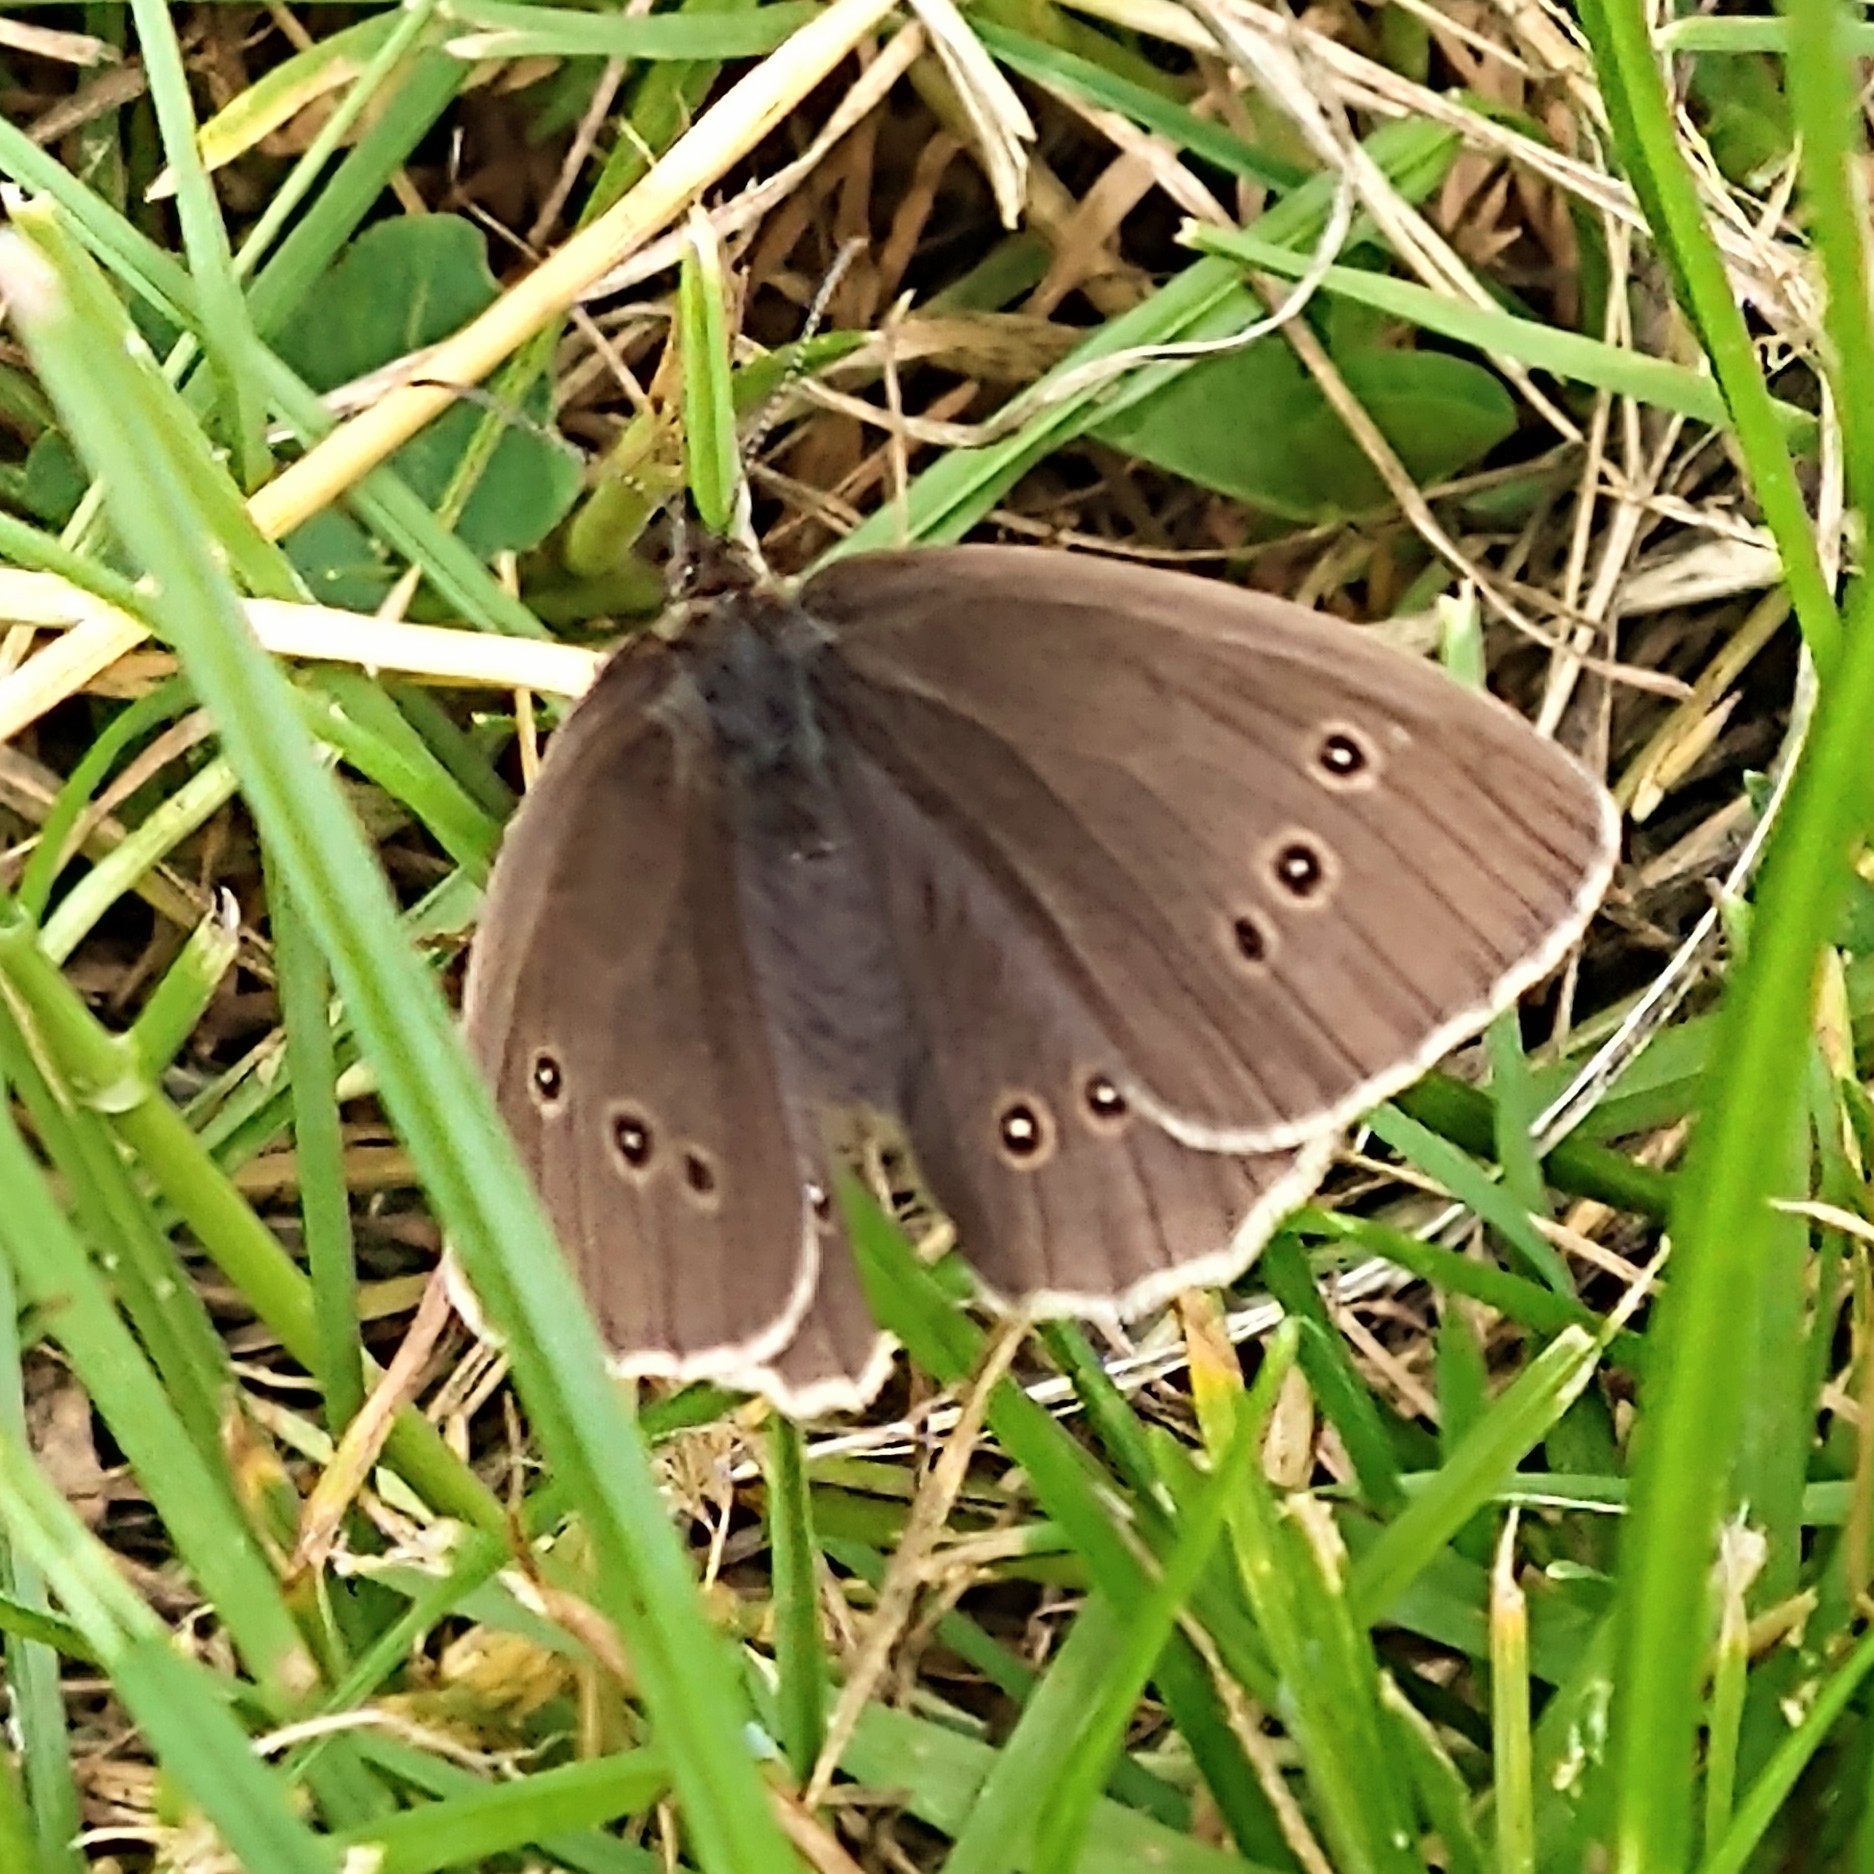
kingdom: Animalia
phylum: Arthropoda
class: Insecta
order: Lepidoptera
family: Nymphalidae
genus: Aphantopus
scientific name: Aphantopus hyperantus
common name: Ringlet
